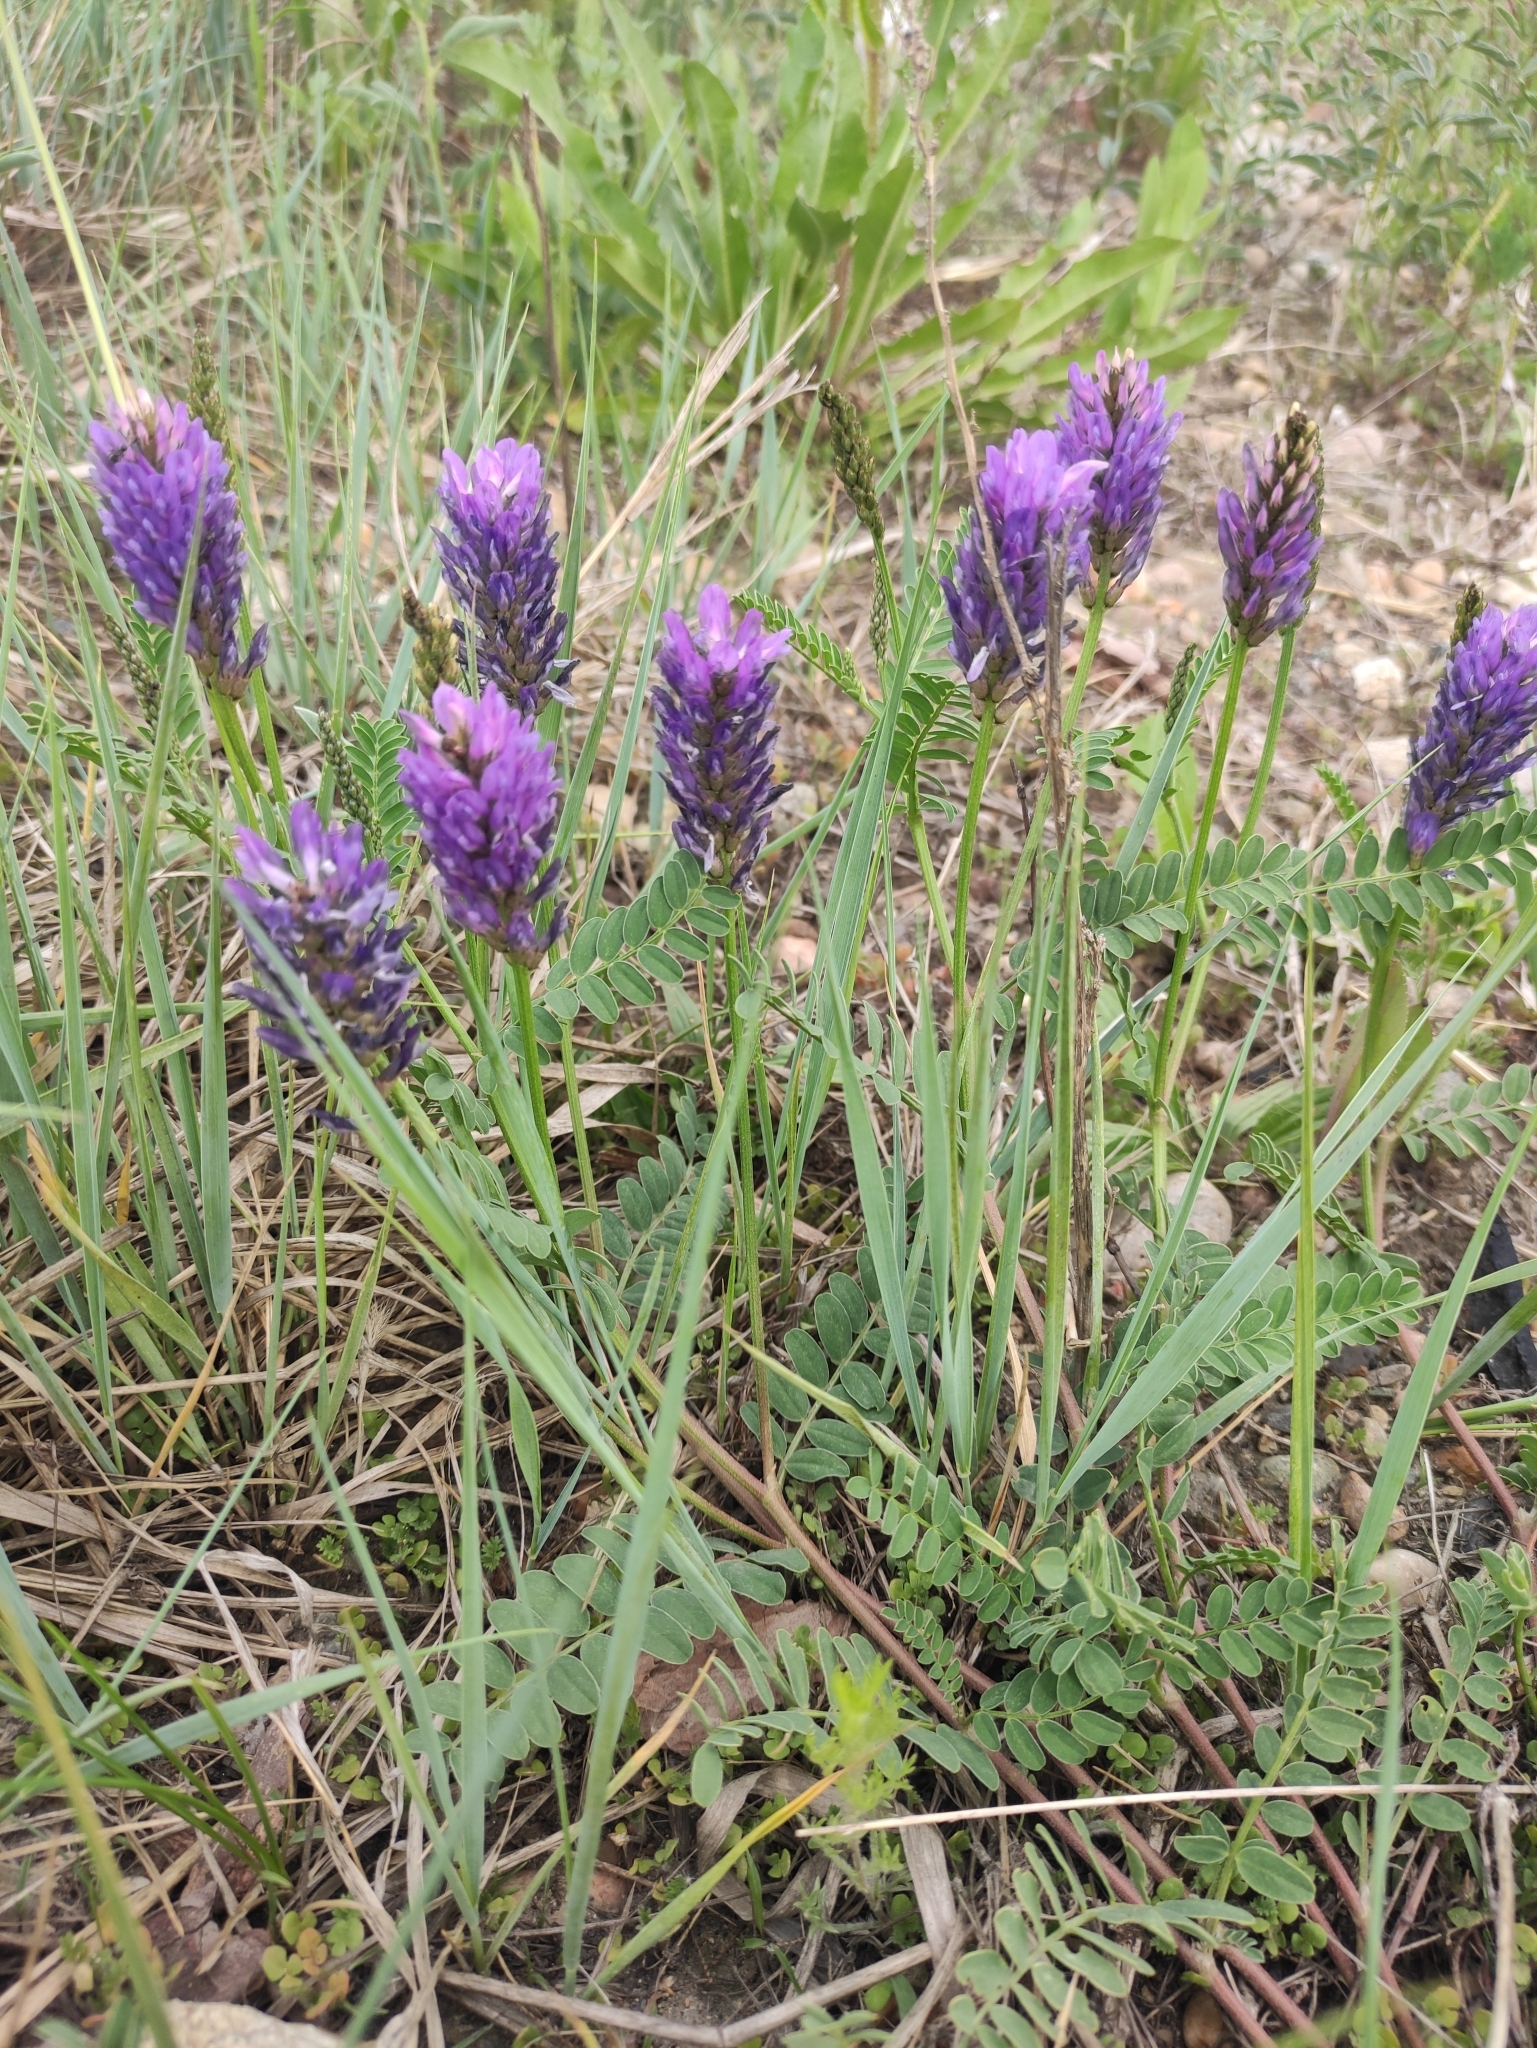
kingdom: Plantae
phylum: Tracheophyta
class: Magnoliopsida
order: Fabales
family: Fabaceae
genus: Astragalus
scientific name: Astragalus laxmannii
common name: Laxmann's milk-vetch
